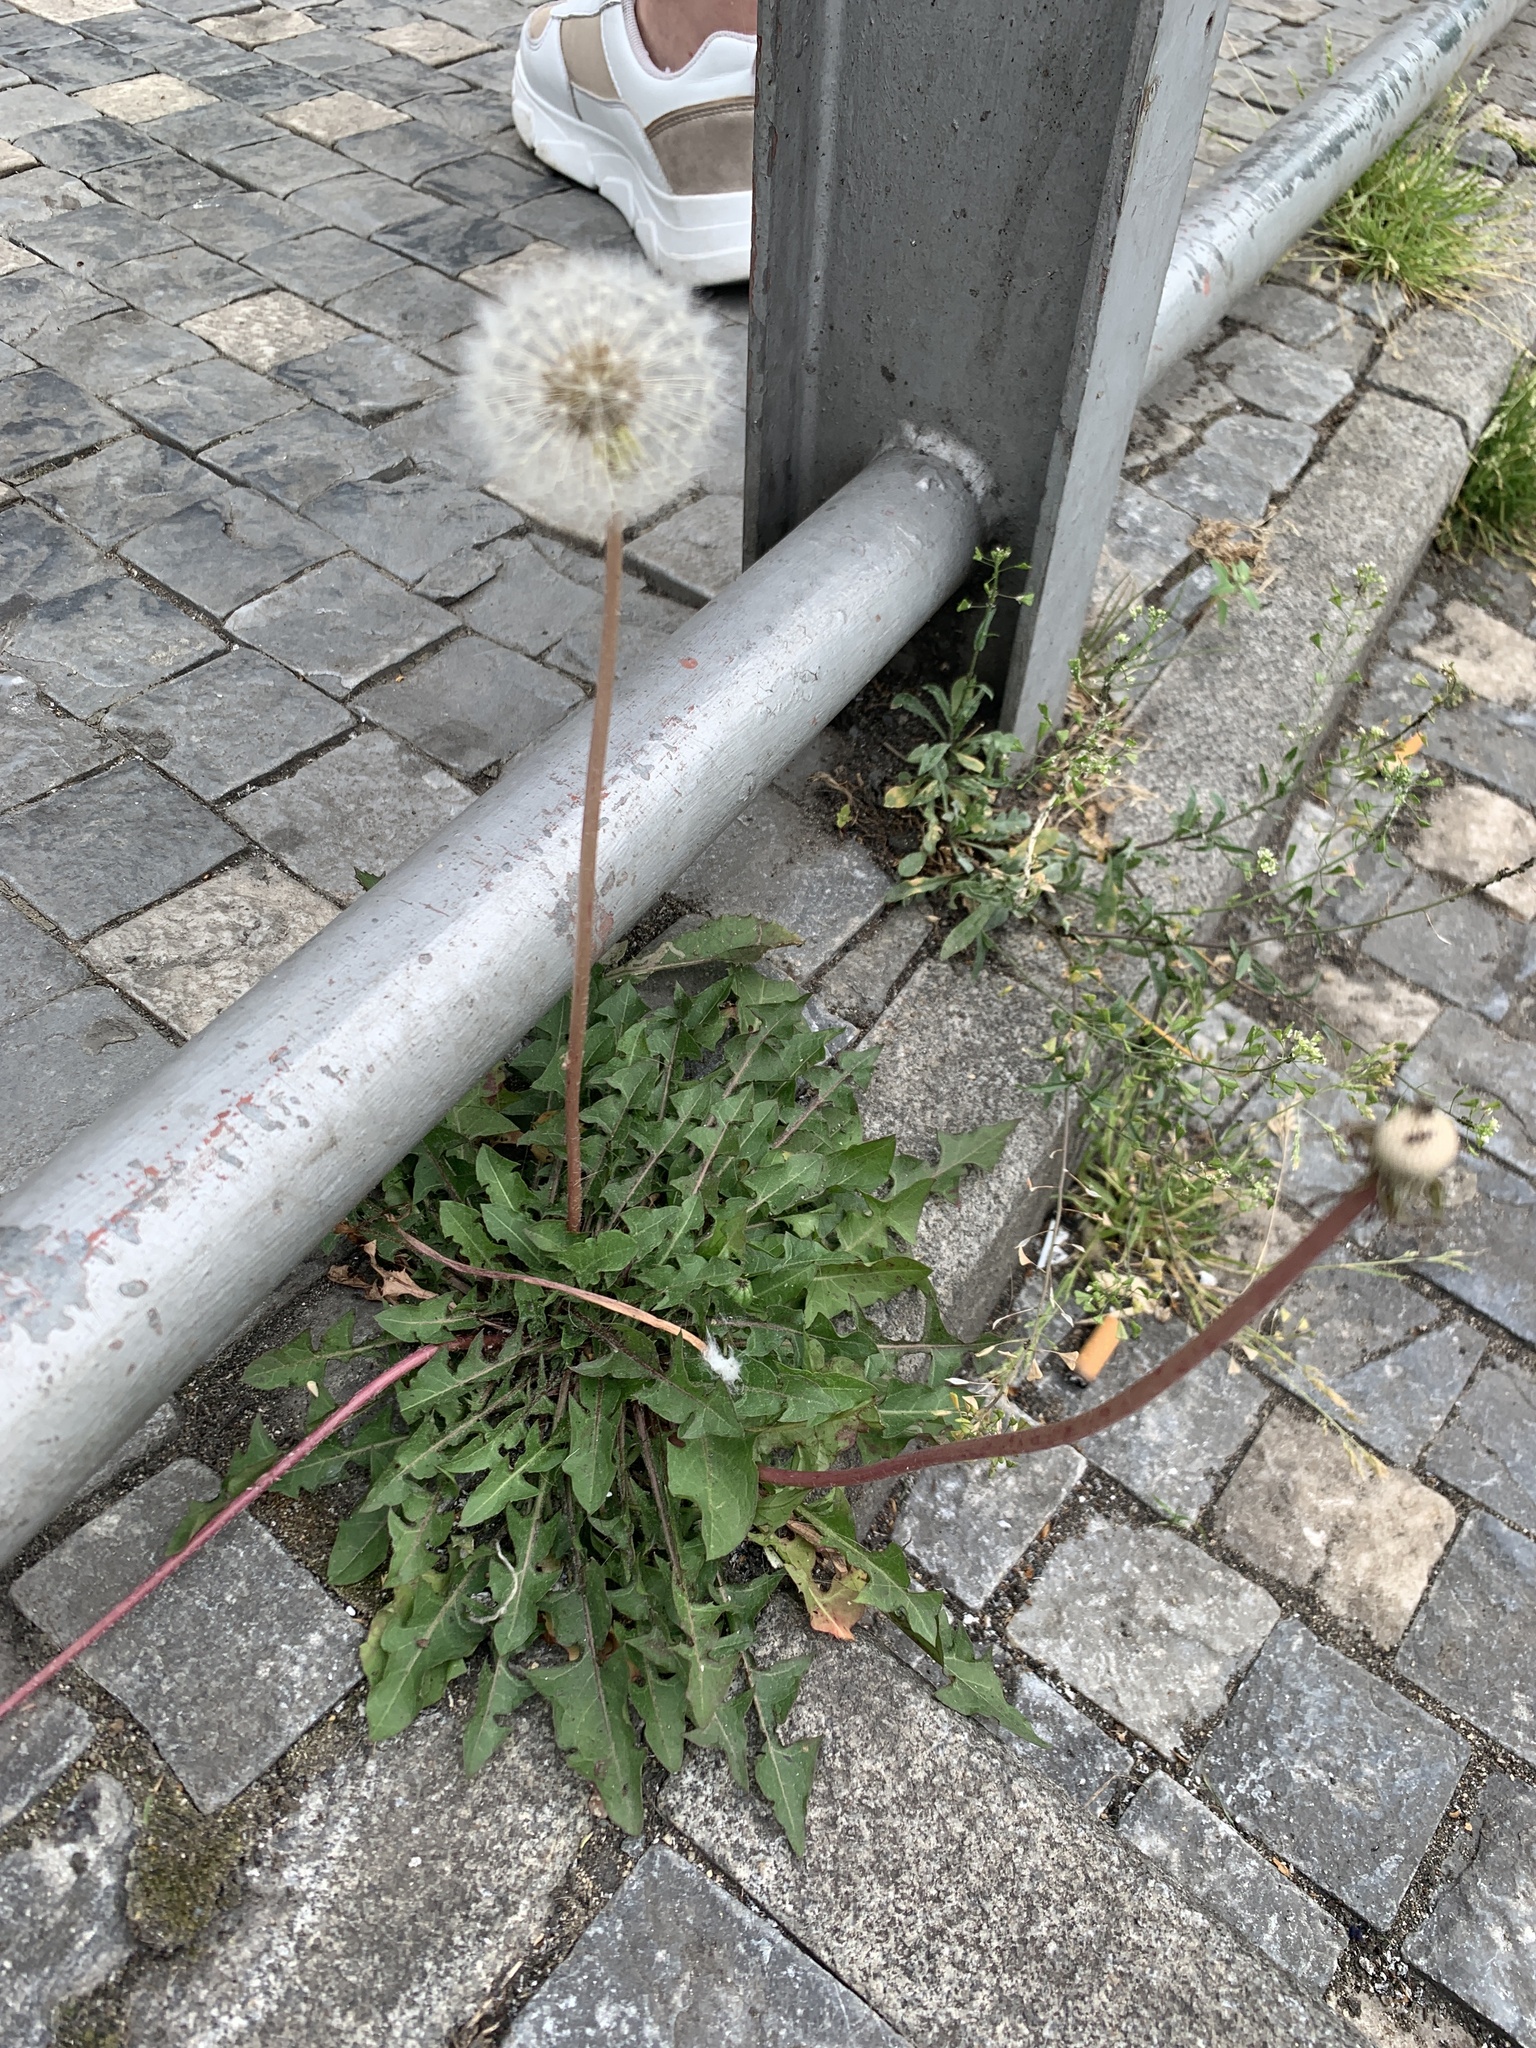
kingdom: Plantae
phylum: Tracheophyta
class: Magnoliopsida
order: Asterales
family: Asteraceae
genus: Taraxacum
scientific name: Taraxacum officinale
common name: Common dandelion
